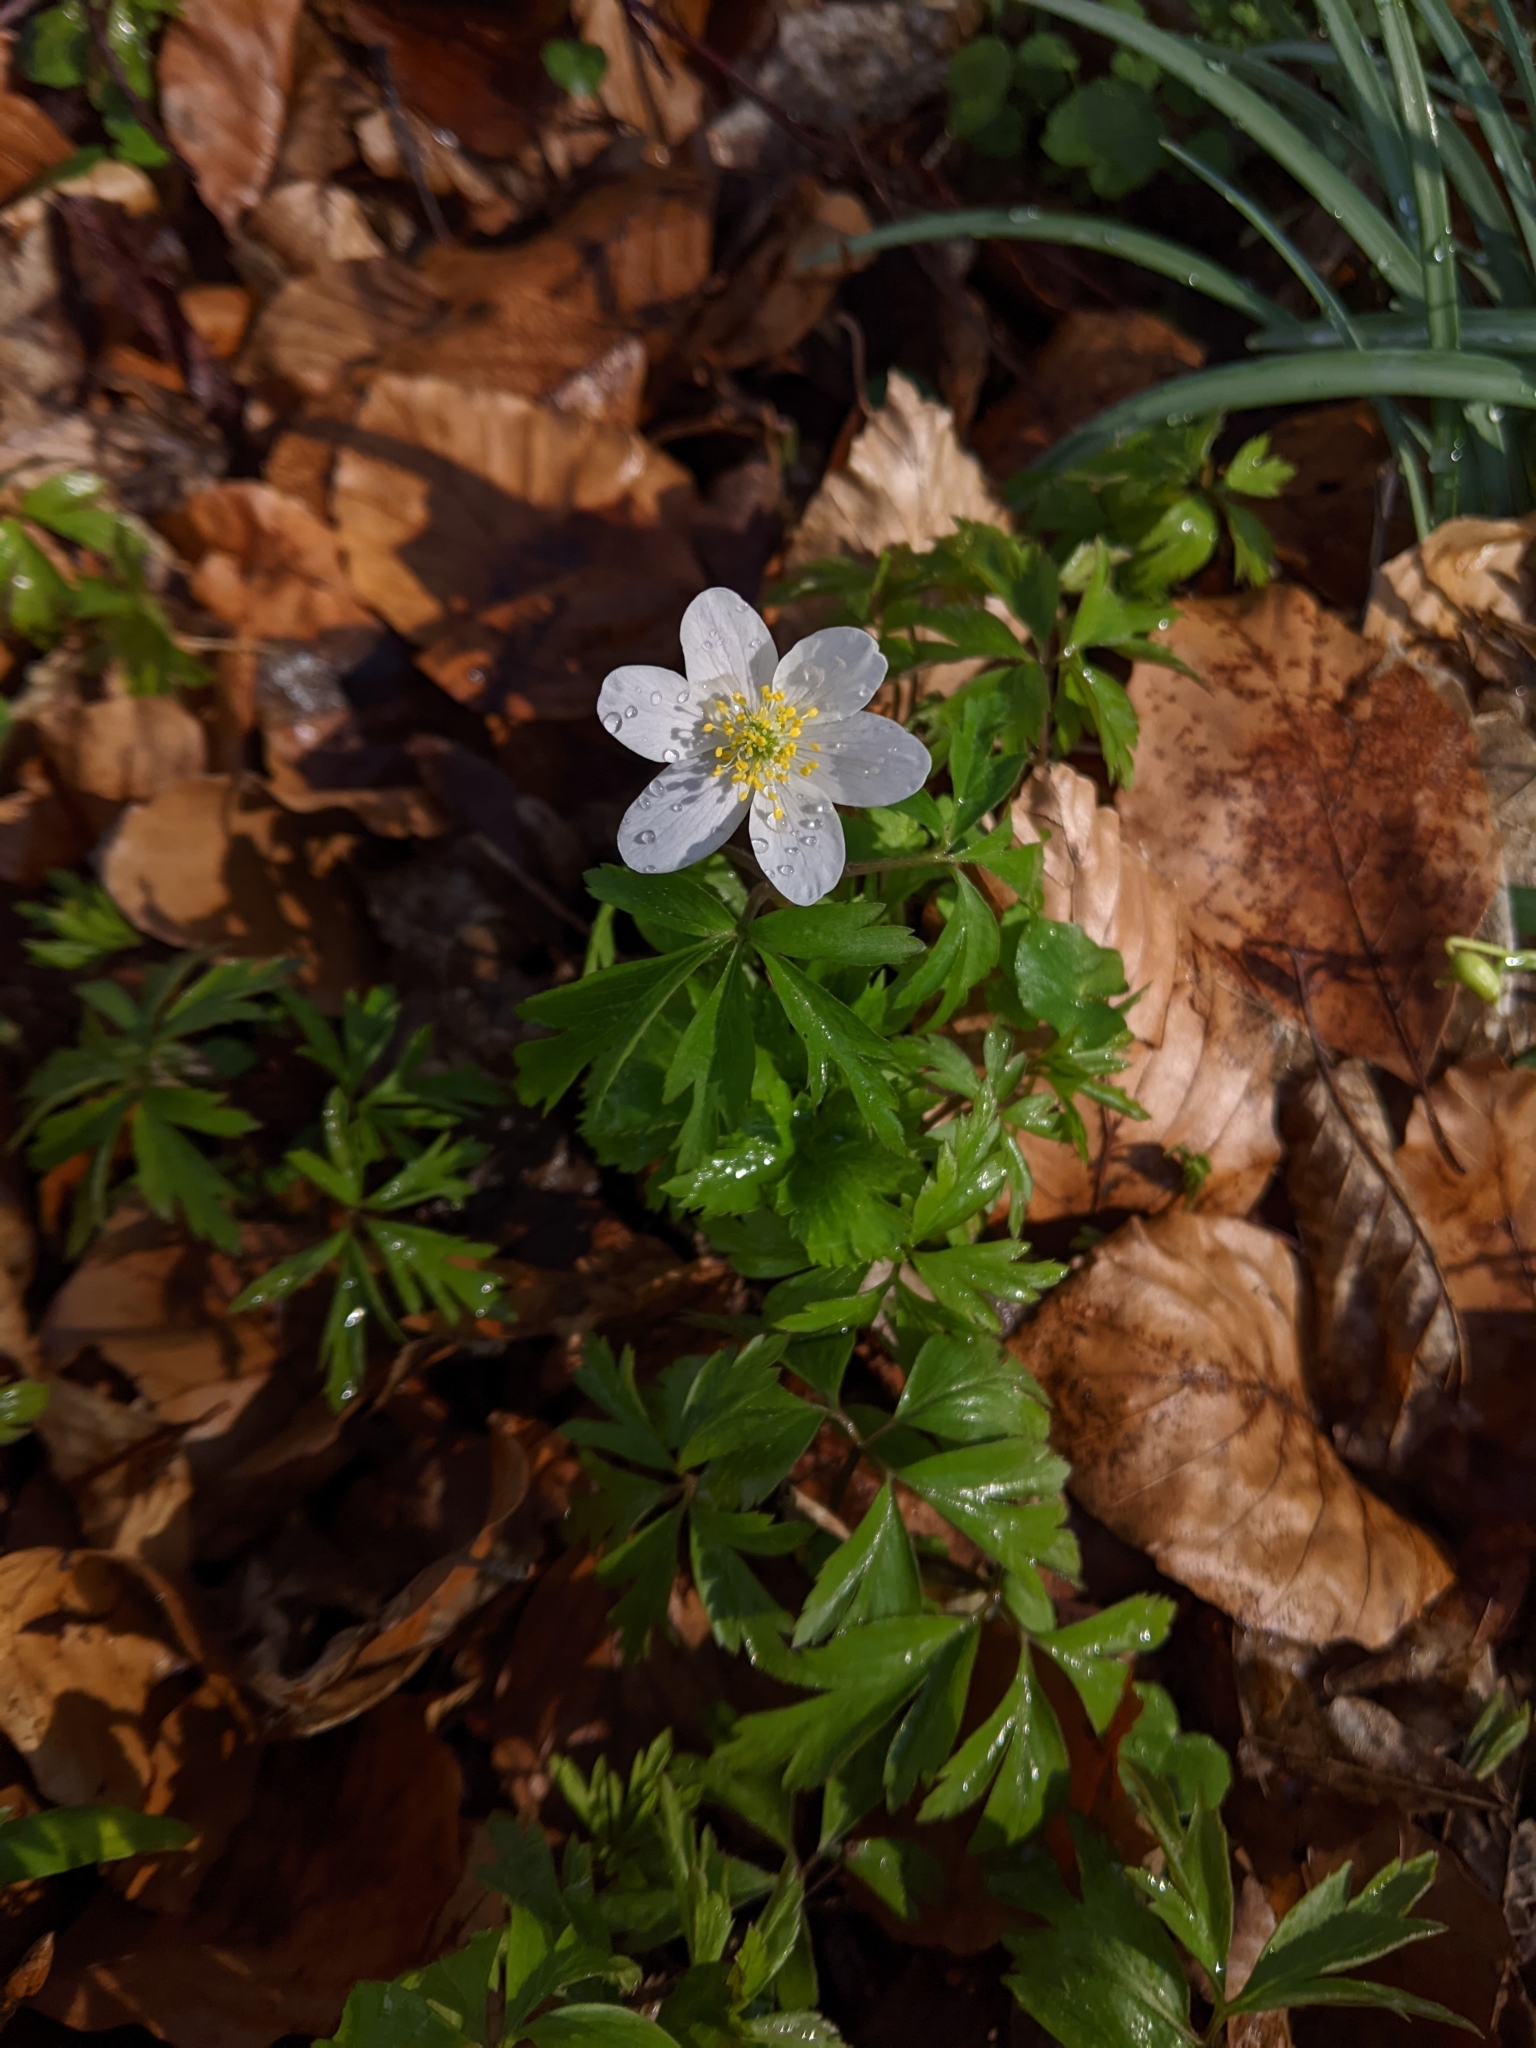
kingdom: Plantae
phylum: Tracheophyta
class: Magnoliopsida
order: Ranunculales
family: Ranunculaceae
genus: Anemone
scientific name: Anemone nemorosa
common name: Wood anemone
